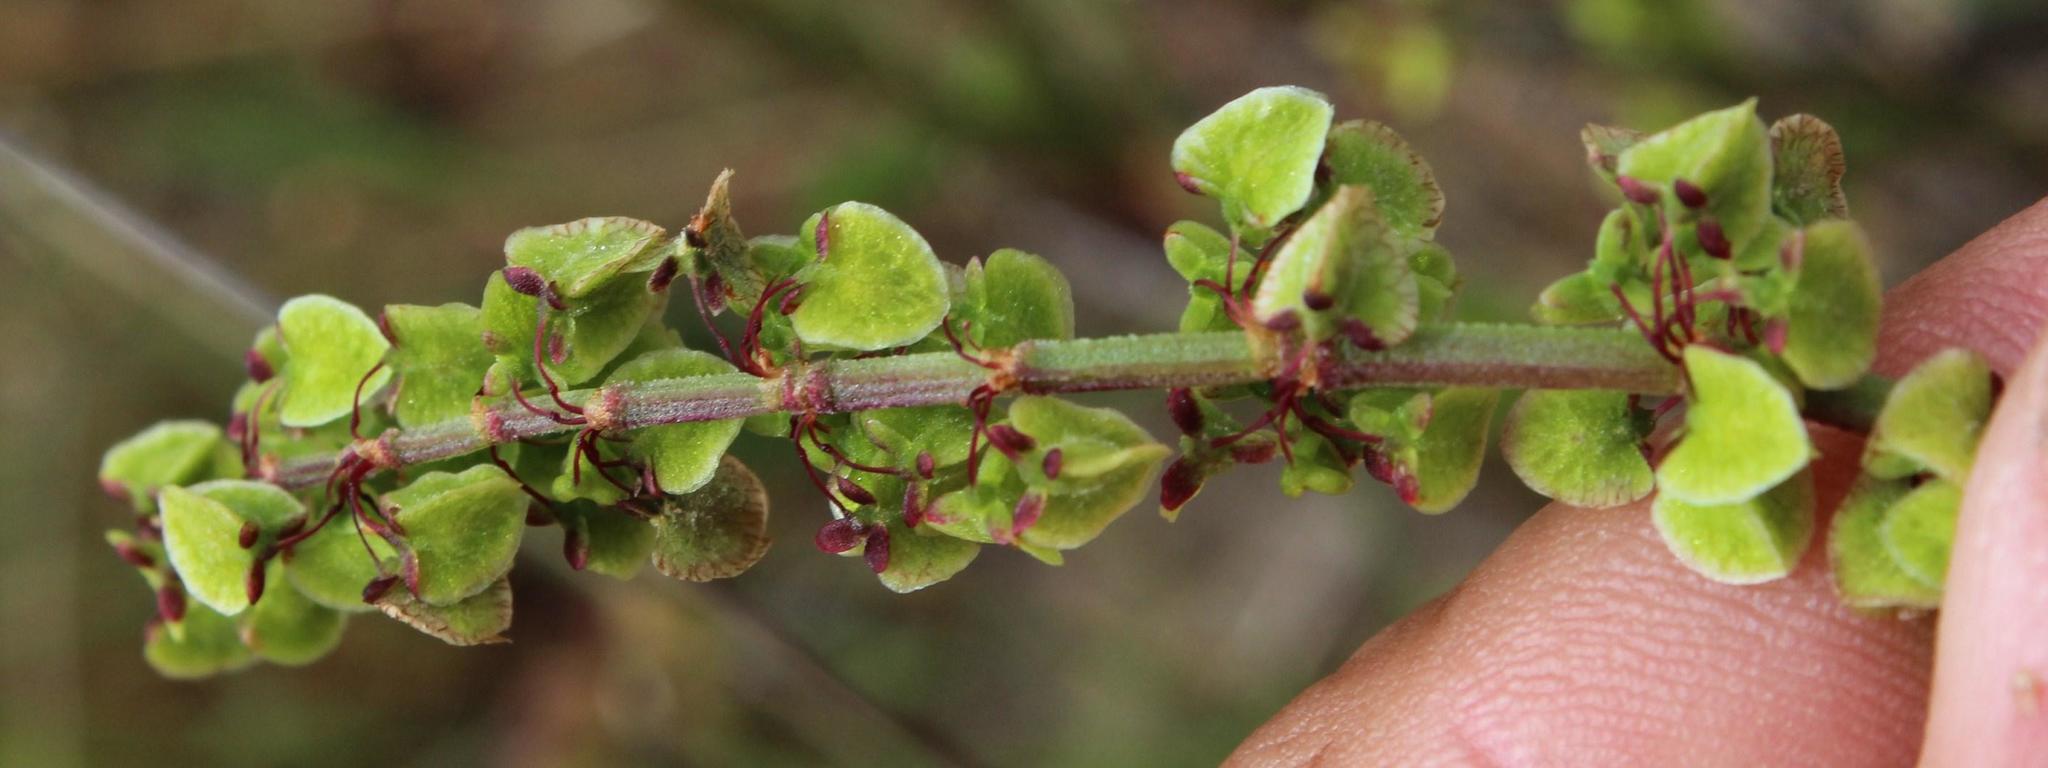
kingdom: Plantae
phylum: Tracheophyta
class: Magnoliopsida
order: Caryophyllales
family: Polygonaceae
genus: Rumex
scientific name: Rumex acetosella
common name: Common sheep sorrel
